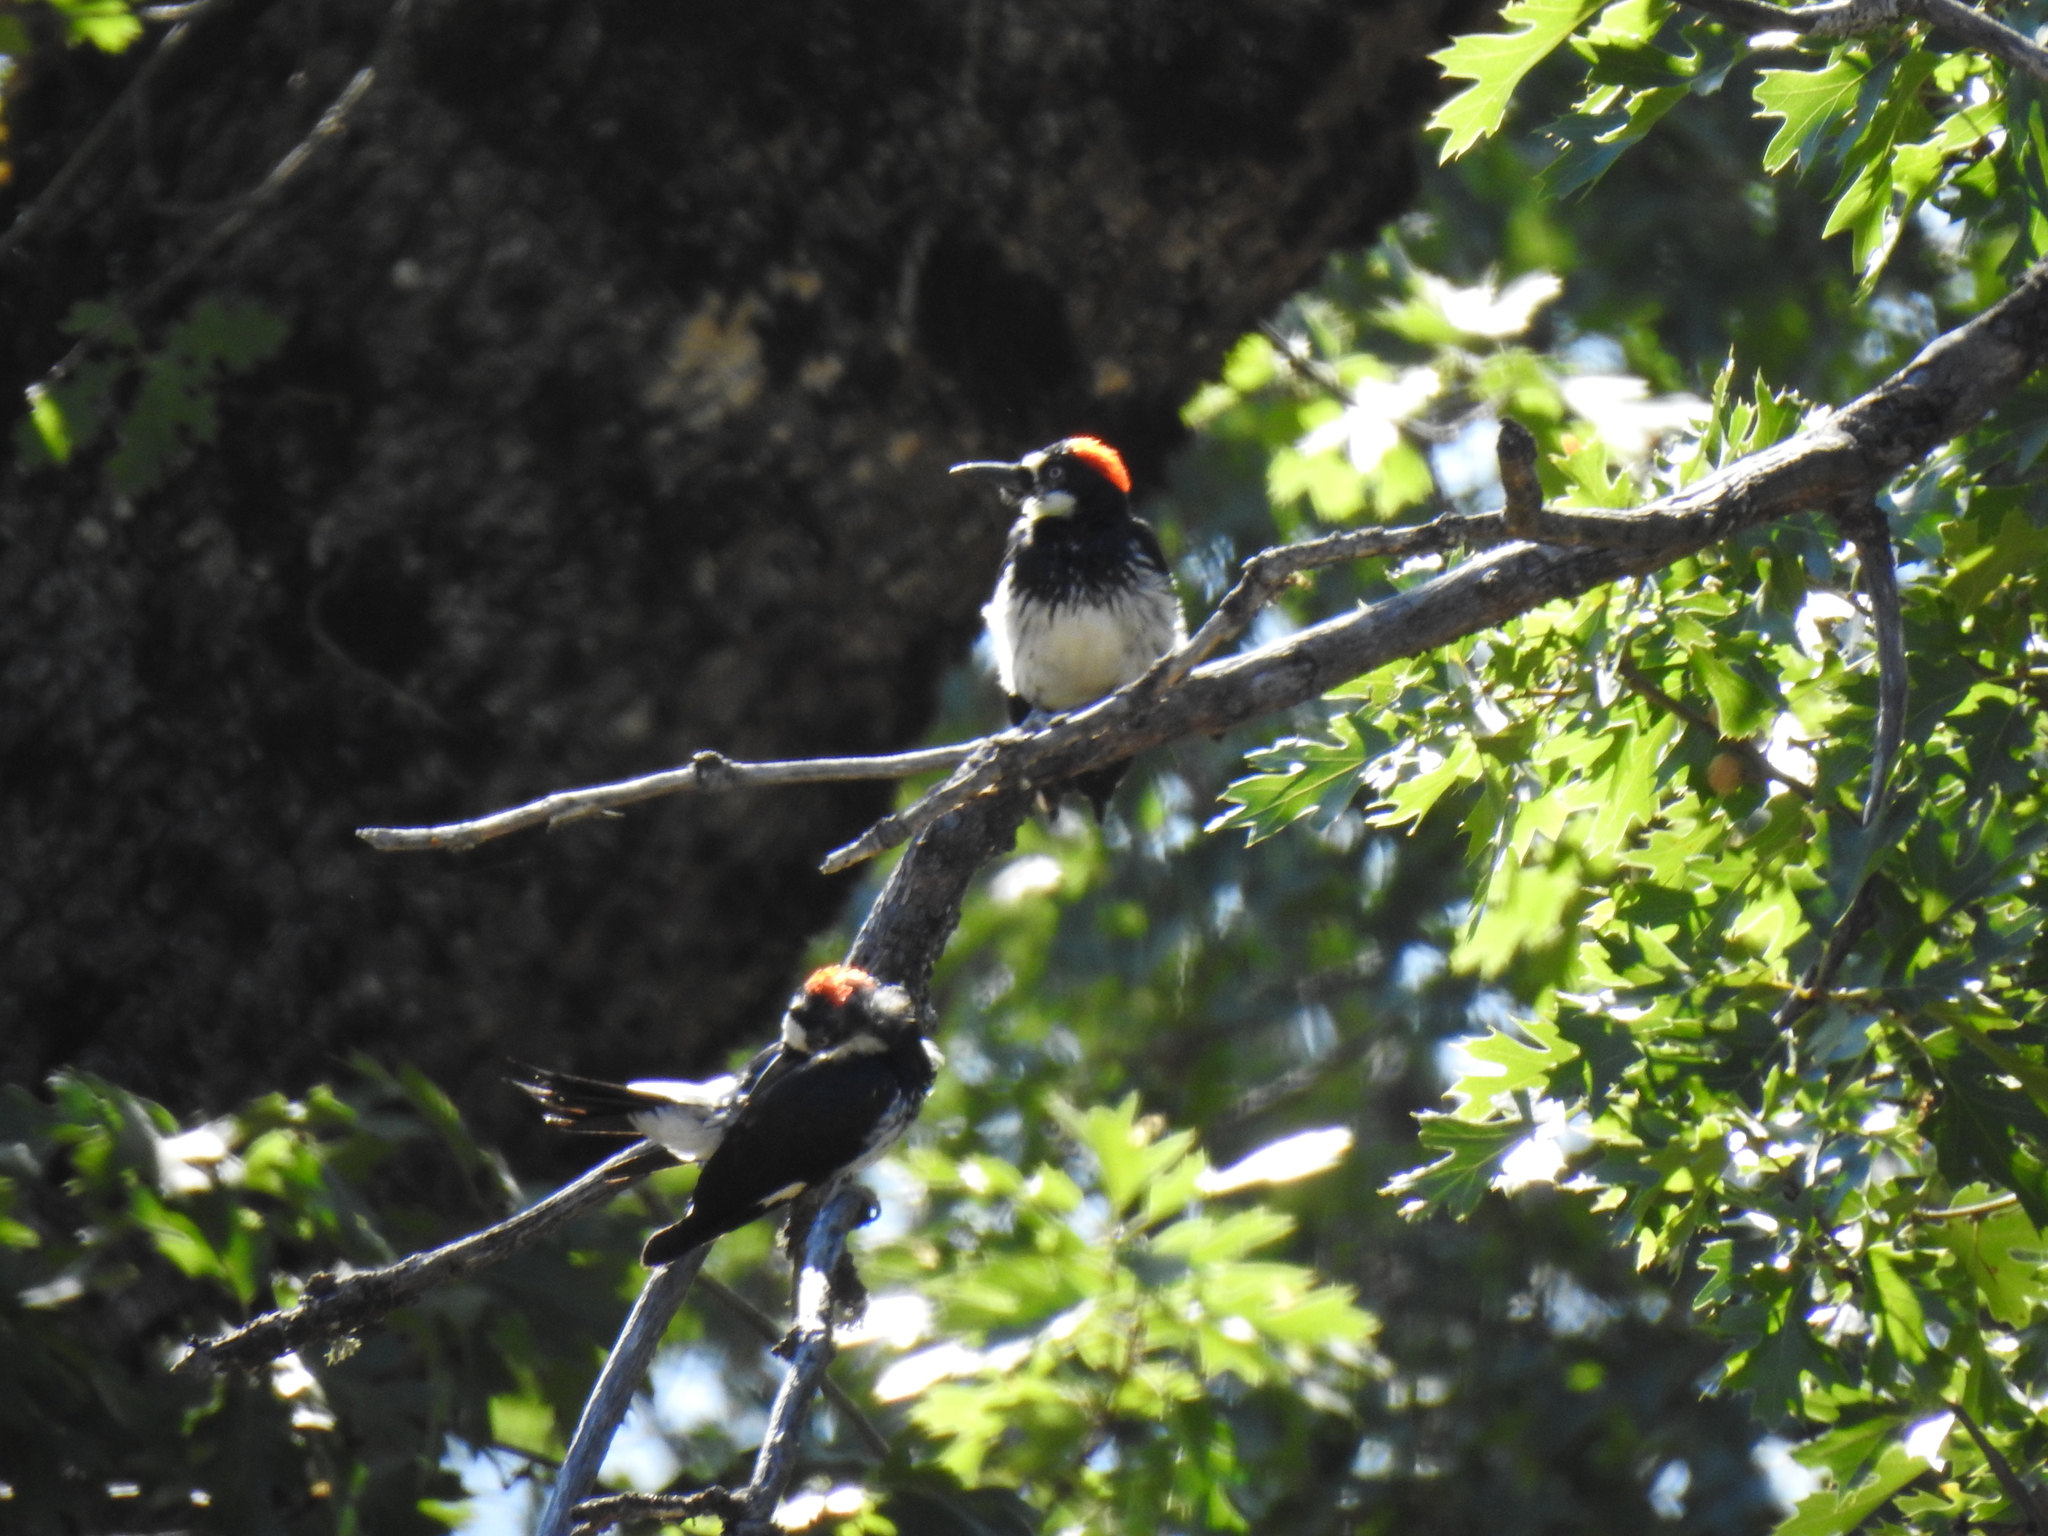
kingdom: Animalia
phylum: Chordata
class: Aves
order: Piciformes
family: Picidae
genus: Melanerpes
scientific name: Melanerpes formicivorus
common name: Acorn woodpecker
